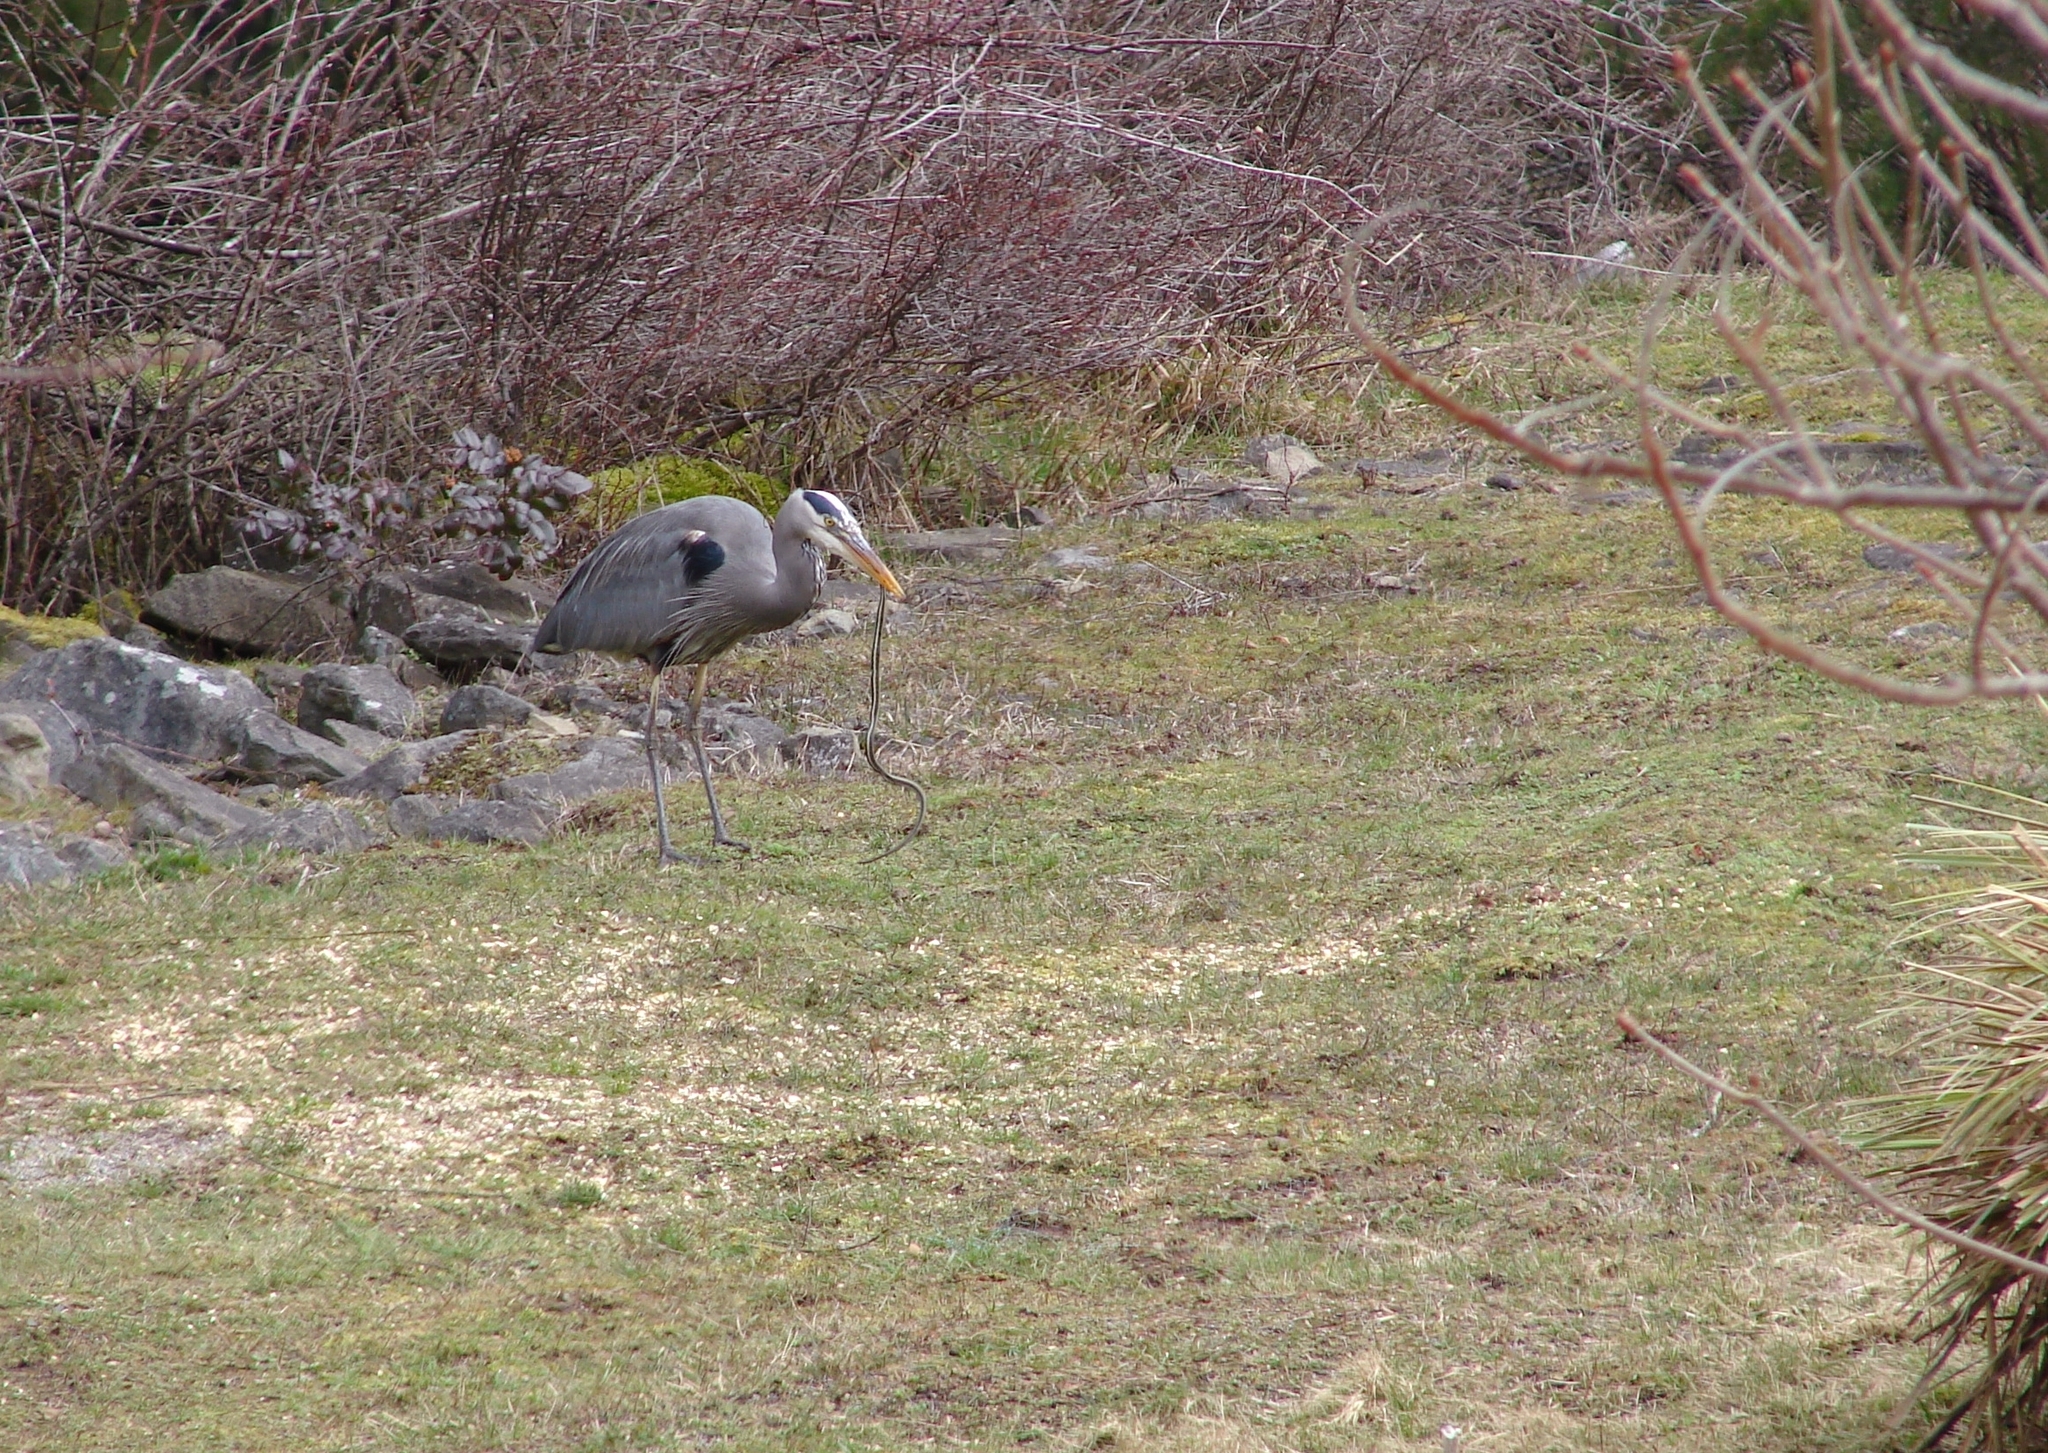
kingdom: Animalia
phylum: Chordata
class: Squamata
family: Colubridae
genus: Thamnophis
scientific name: Thamnophis sirtalis
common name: Common garter snake
